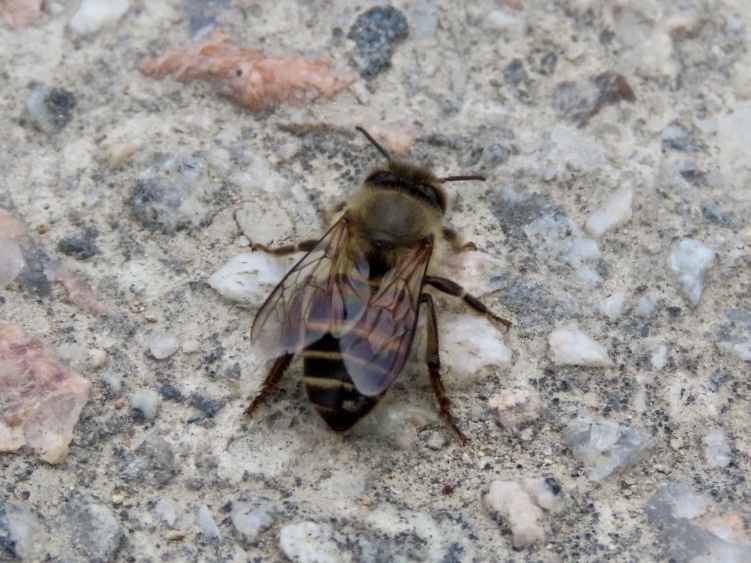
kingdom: Animalia
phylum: Arthropoda
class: Insecta
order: Hymenoptera
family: Apidae
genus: Apis
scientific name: Apis cerana
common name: Honey bee
